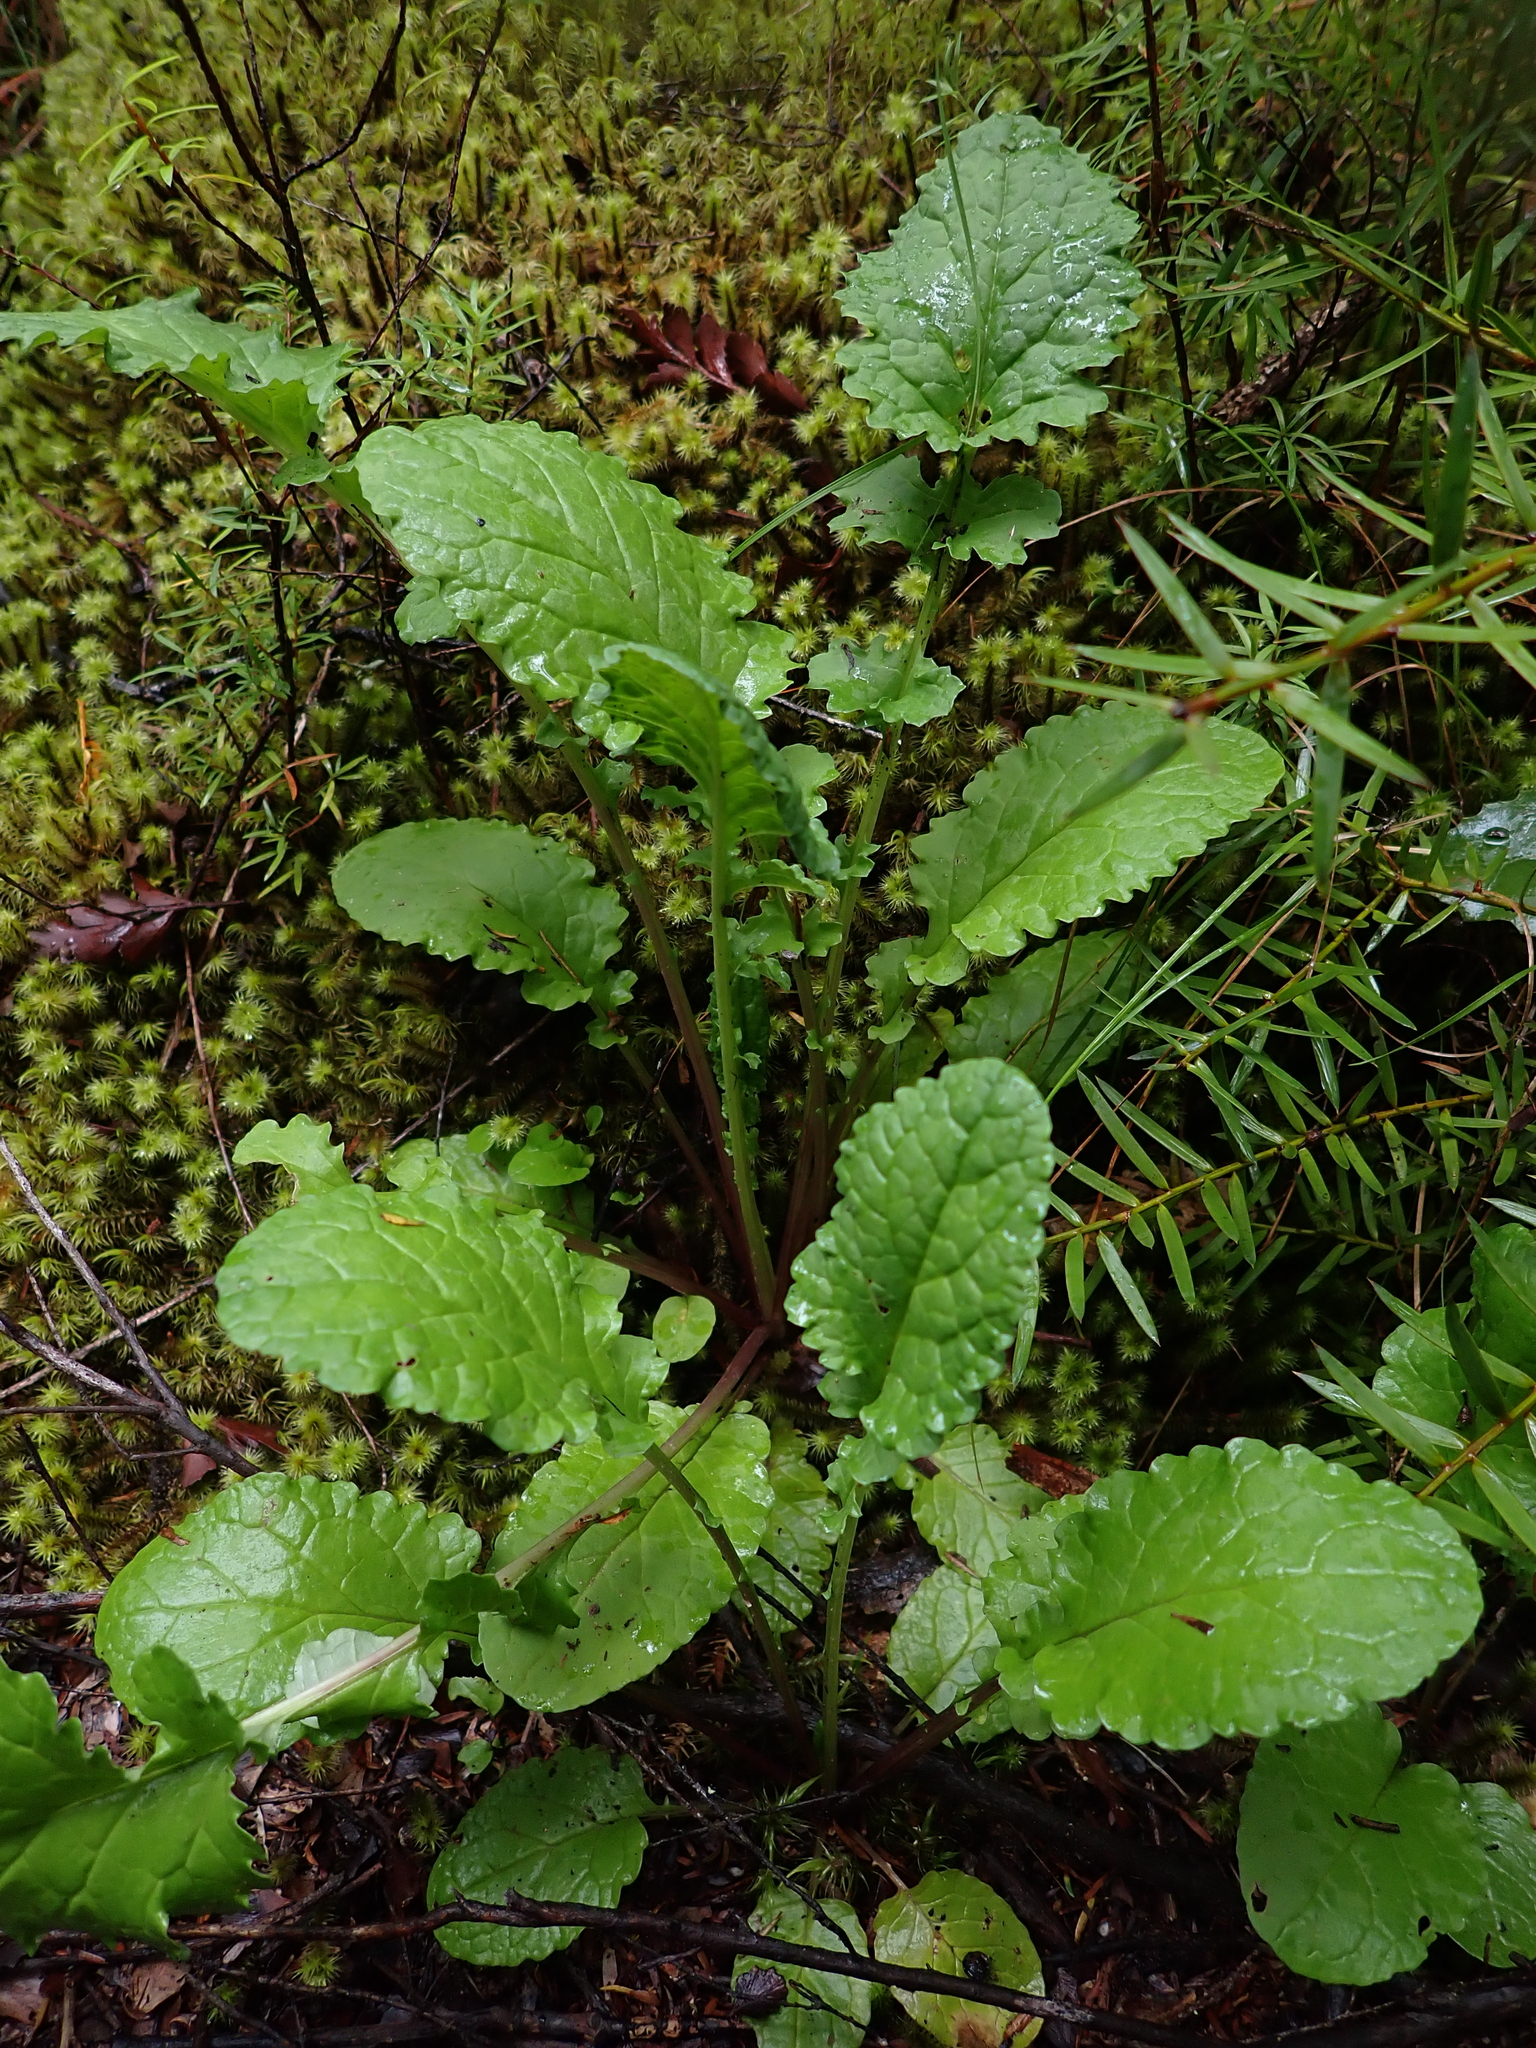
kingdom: Plantae
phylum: Tracheophyta
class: Magnoliopsida
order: Asterales
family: Asteraceae
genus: Jacobaea
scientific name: Jacobaea vulgaris
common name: Stinking willie
